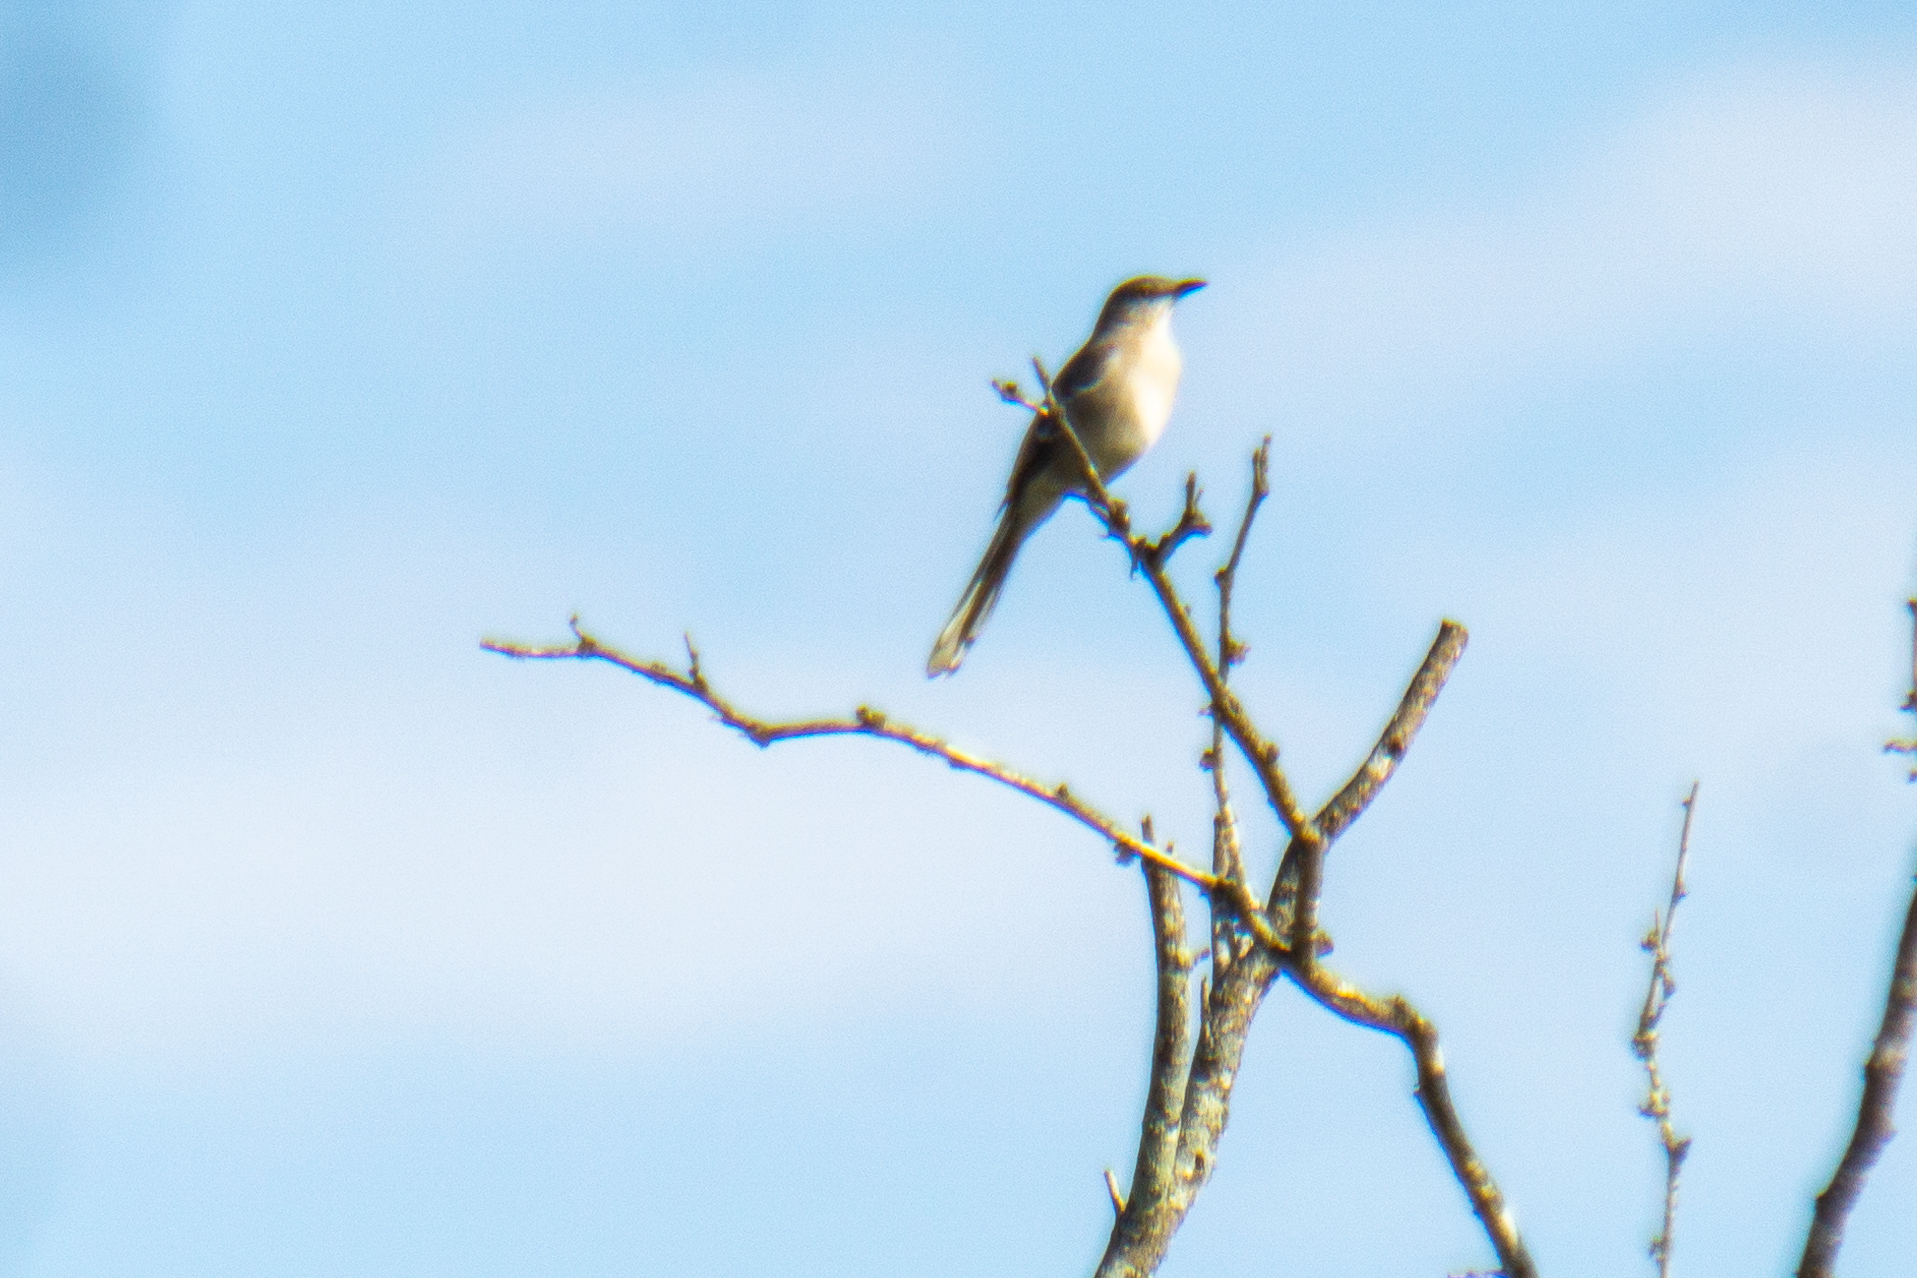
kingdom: Animalia
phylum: Chordata
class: Aves
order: Passeriformes
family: Mimidae
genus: Mimus
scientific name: Mimus polyglottos
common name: Northern mockingbird
